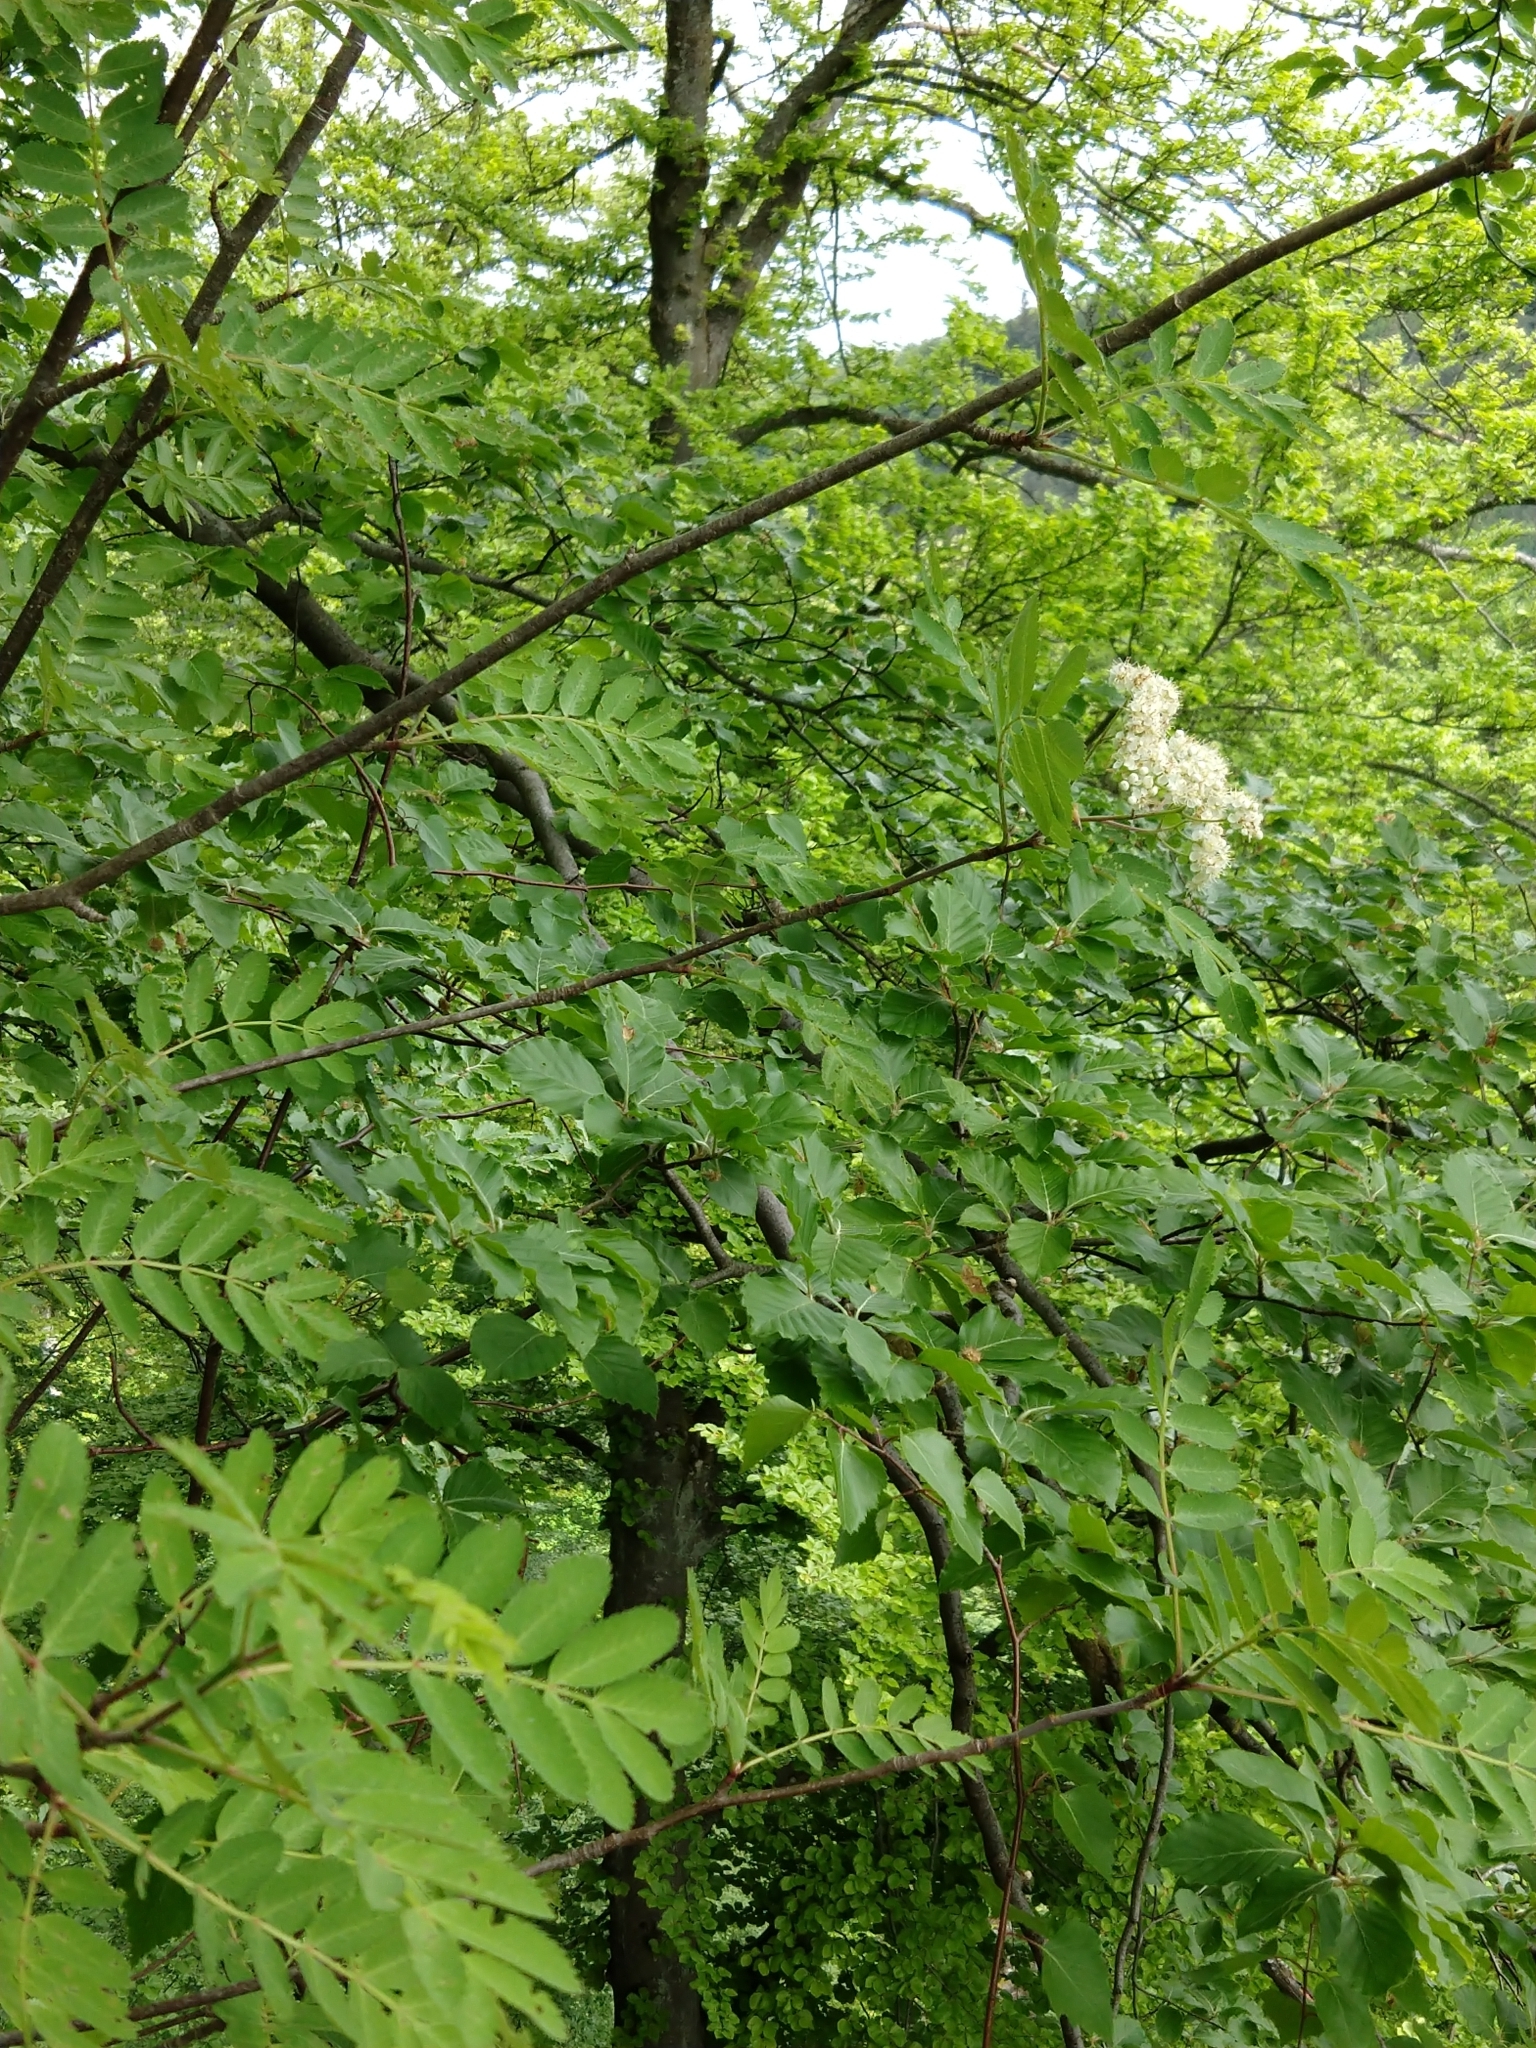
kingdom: Plantae
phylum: Tracheophyta
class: Magnoliopsida
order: Rosales
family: Rosaceae
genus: Sorbus
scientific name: Sorbus aucuparia
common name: Rowan
